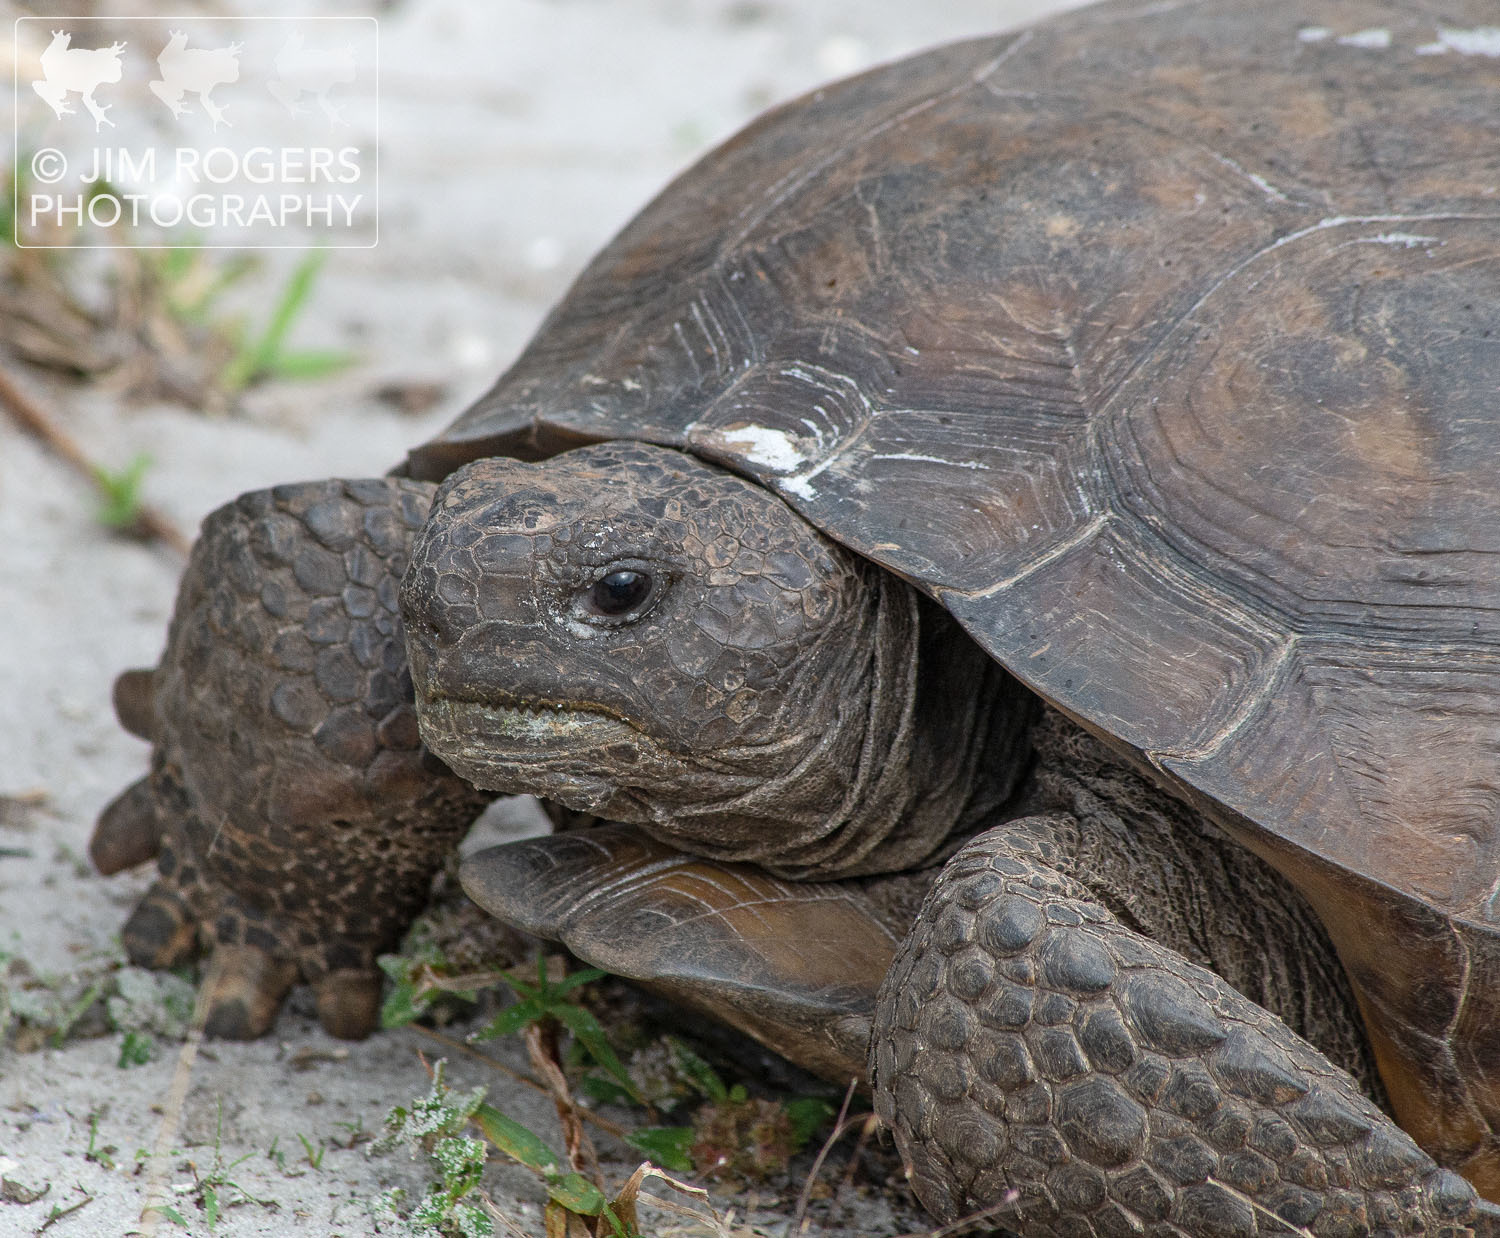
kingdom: Animalia
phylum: Chordata
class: Testudines
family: Testudinidae
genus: Gopherus
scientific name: Gopherus polyphemus
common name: Florida gopher tortoise
